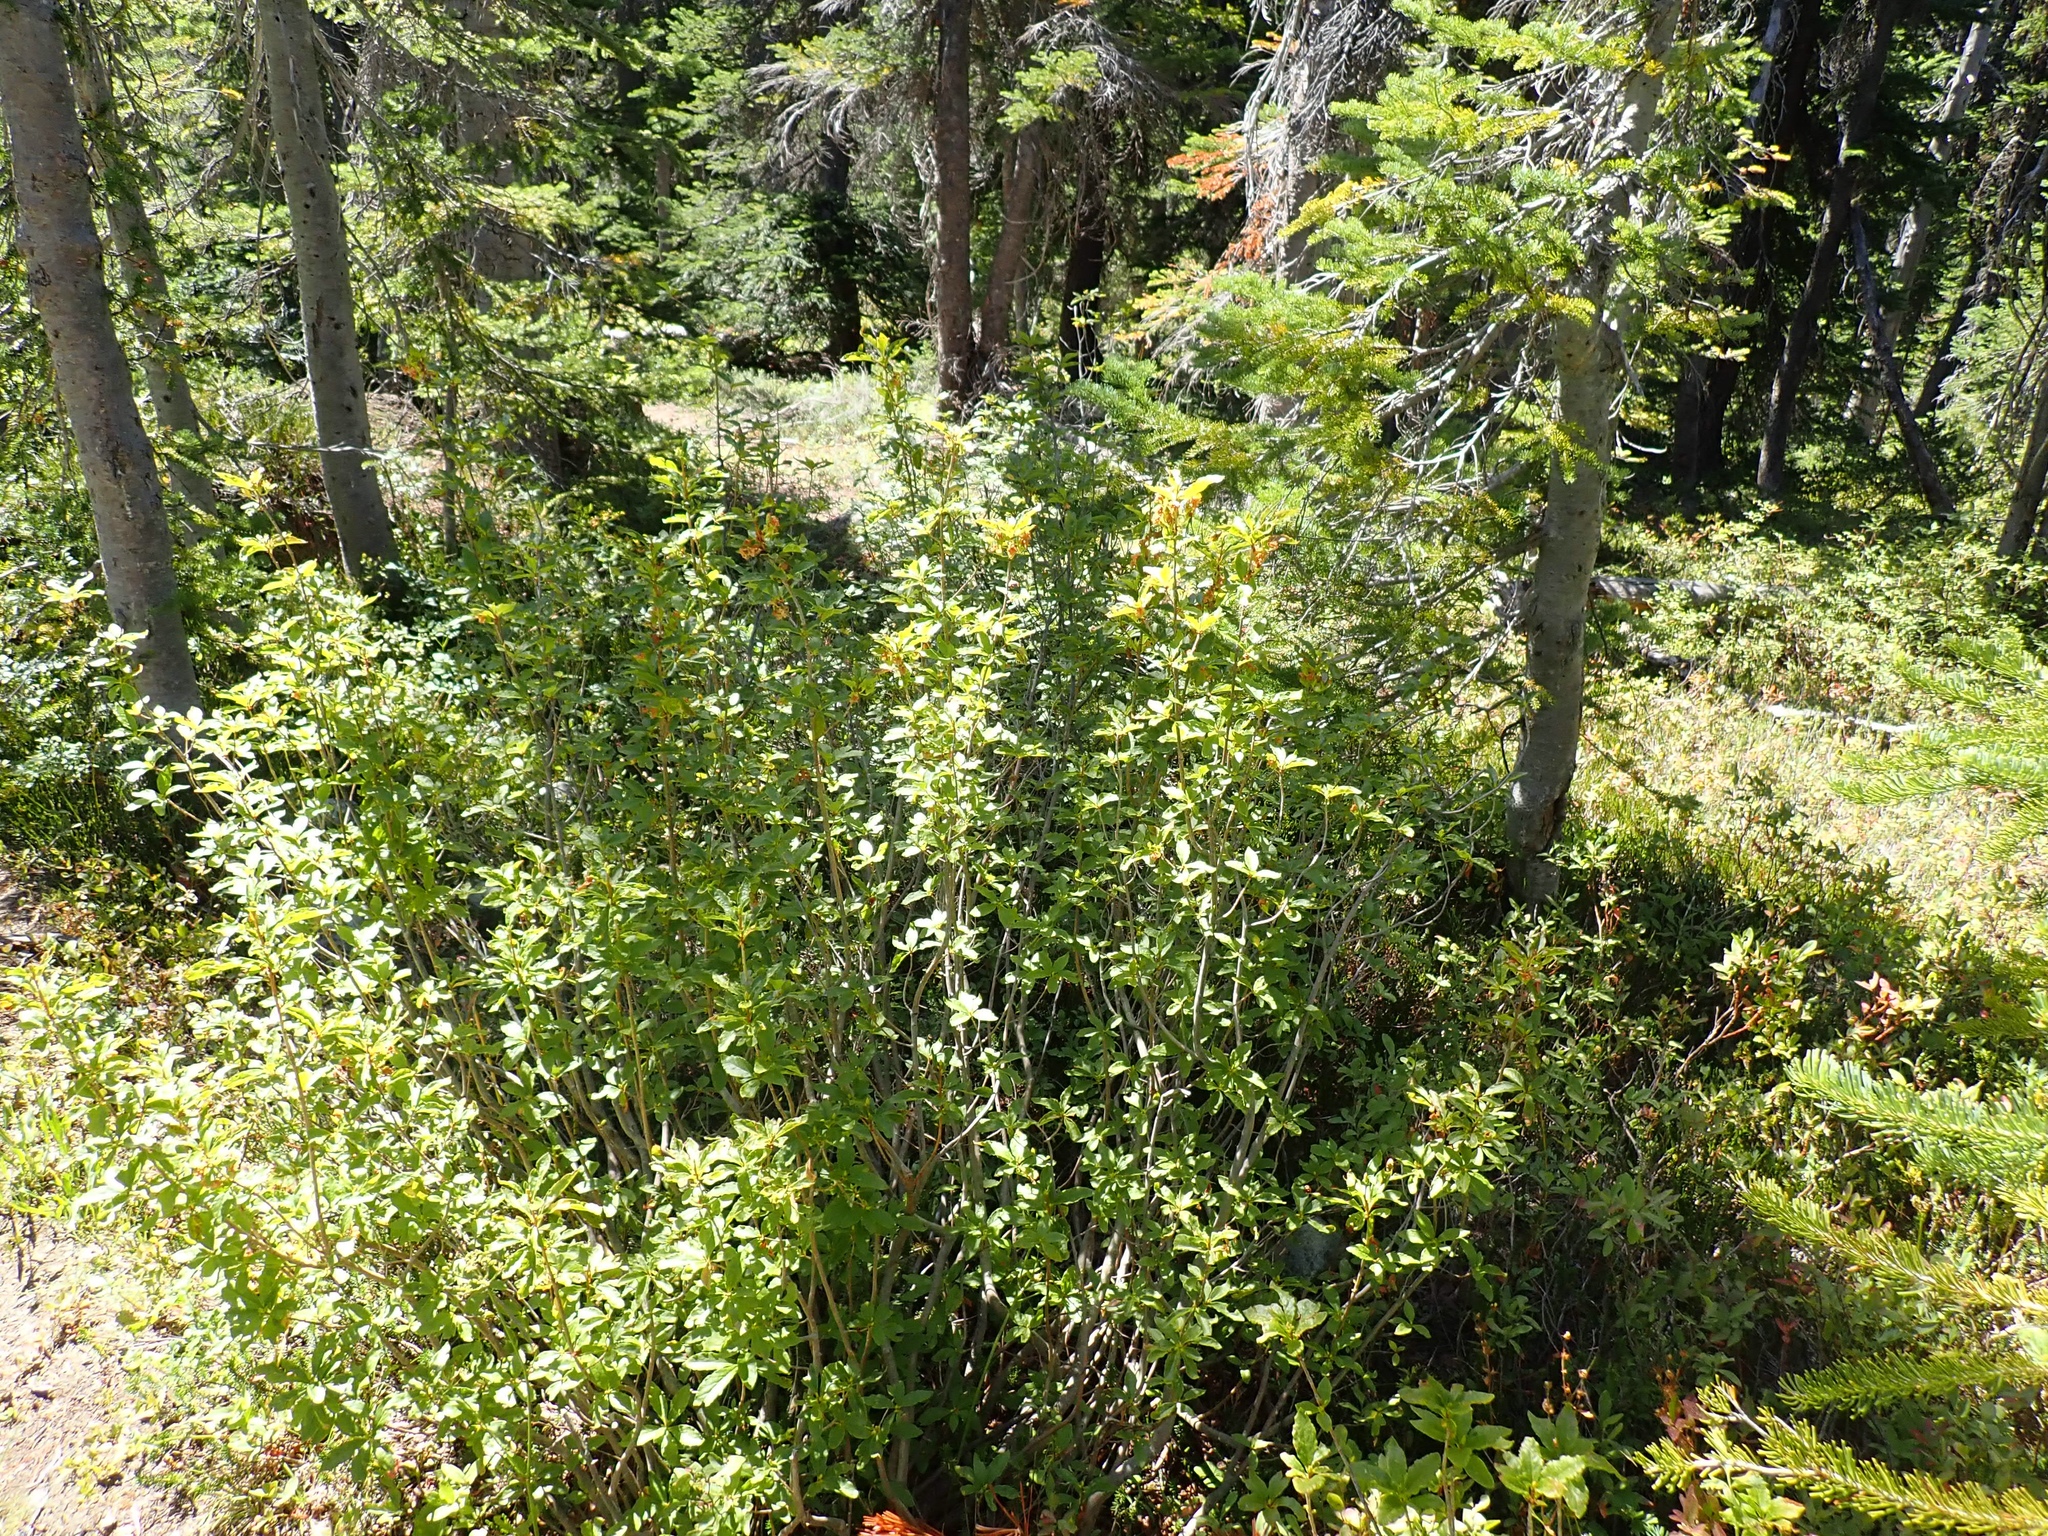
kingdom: Plantae
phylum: Tracheophyta
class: Magnoliopsida
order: Ericales
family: Ericaceae
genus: Rhododendron
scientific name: Rhododendron albiflorum
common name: White rhododendron
